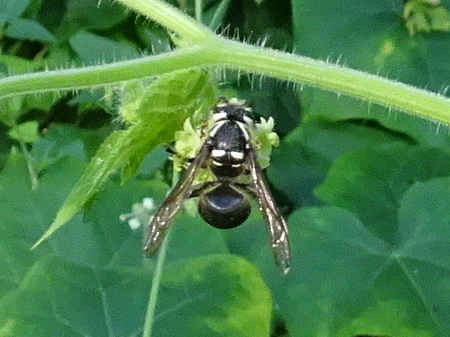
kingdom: Animalia
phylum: Arthropoda
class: Insecta
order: Hymenoptera
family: Vespidae
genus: Dolichovespula
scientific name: Dolichovespula maculata
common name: Bald-faced hornet
